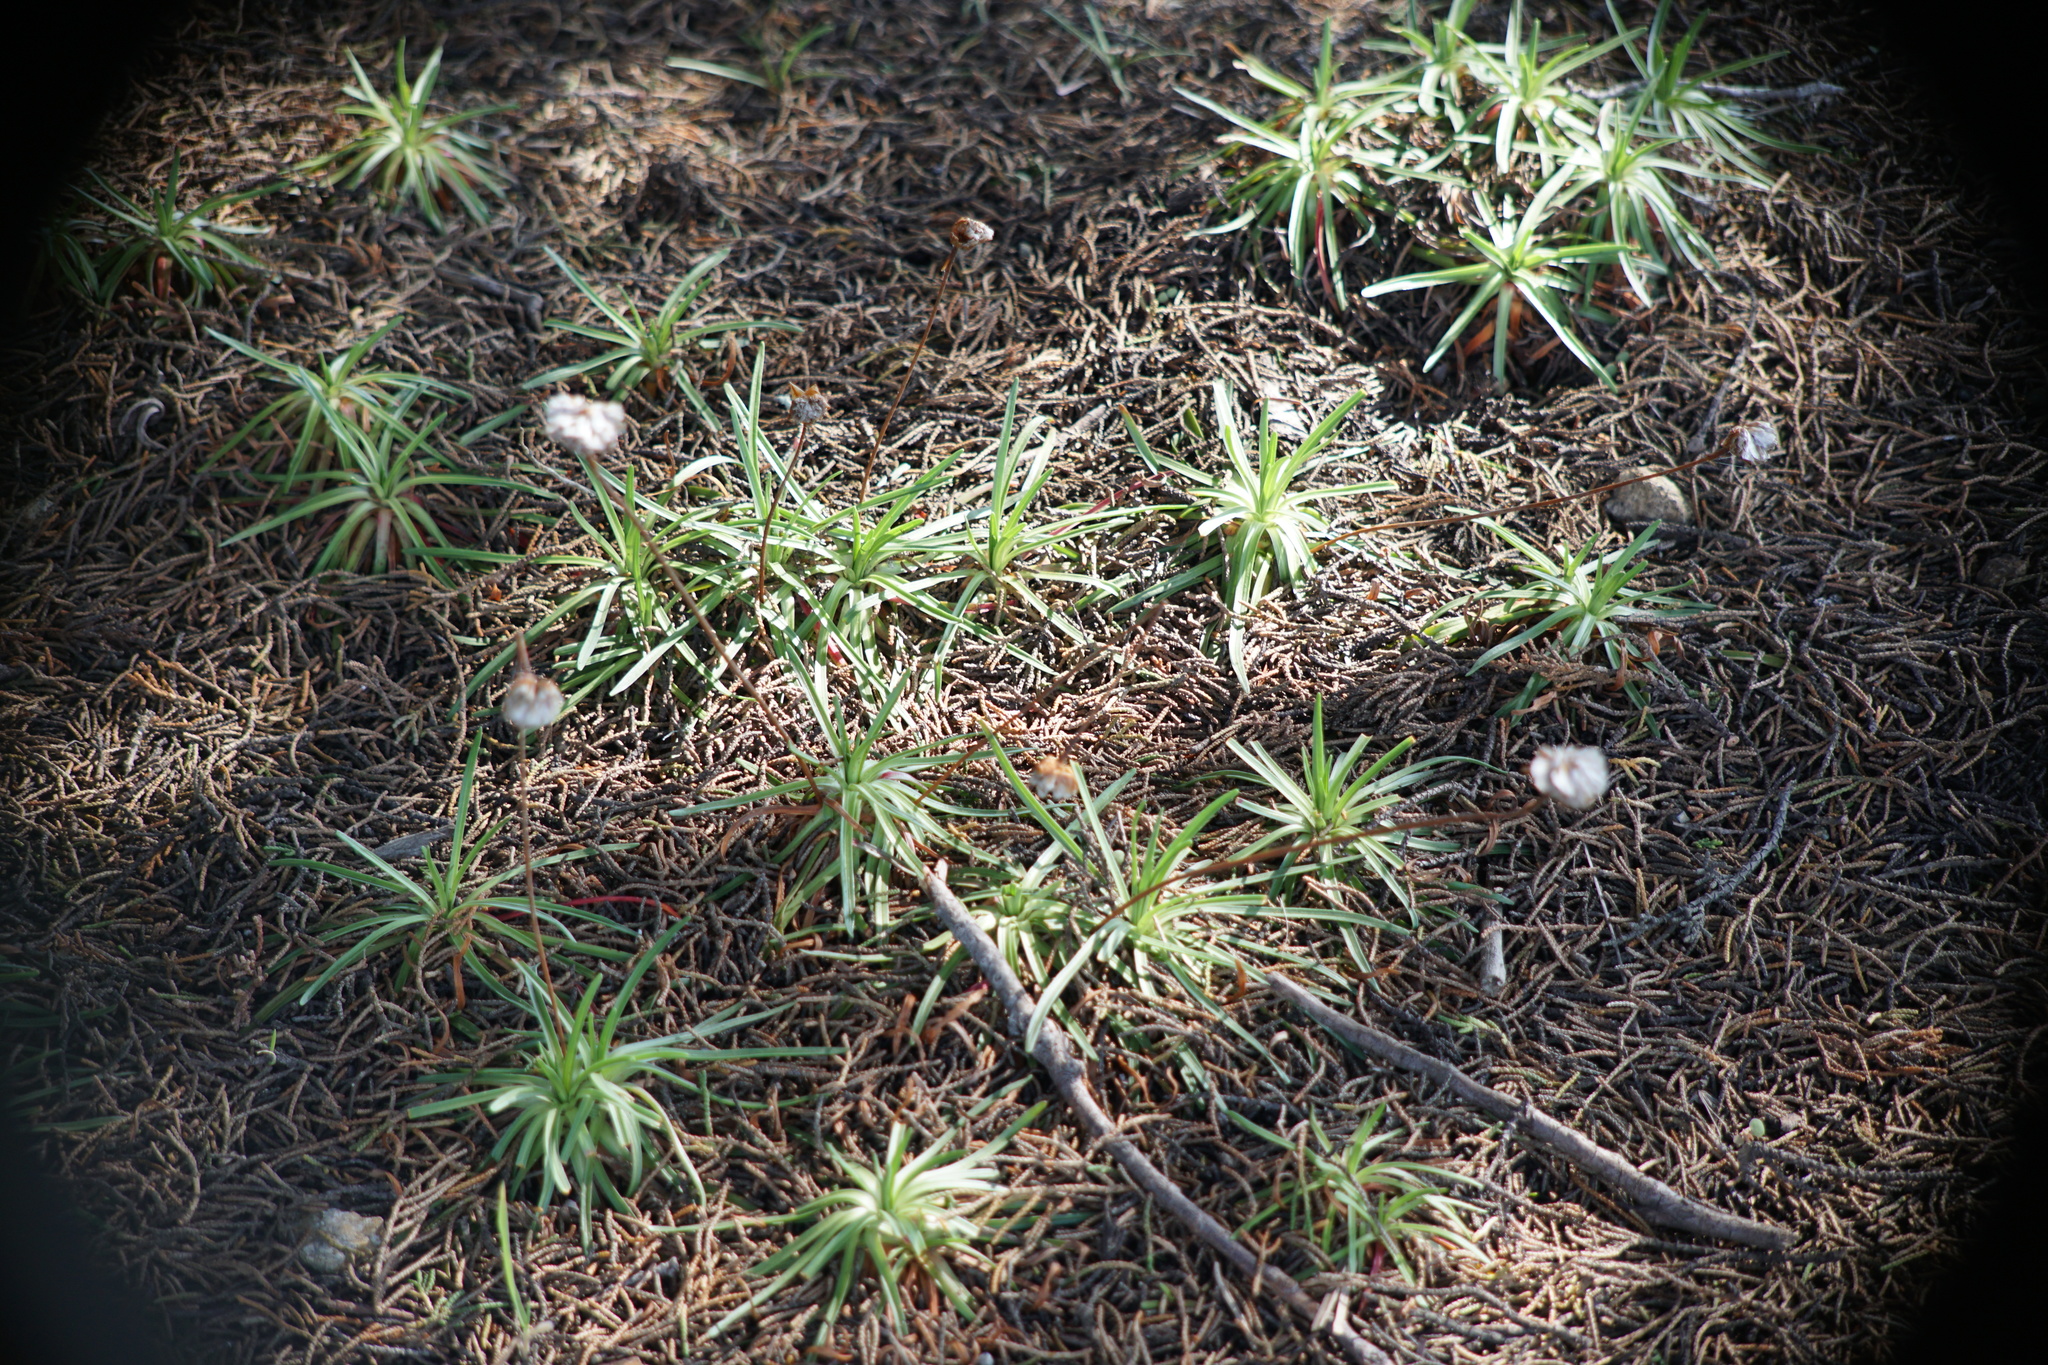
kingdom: Plantae
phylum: Tracheophyta
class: Magnoliopsida
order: Caryophyllales
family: Plumbaginaceae
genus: Armeria
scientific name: Armeria maritima
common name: Thrift
